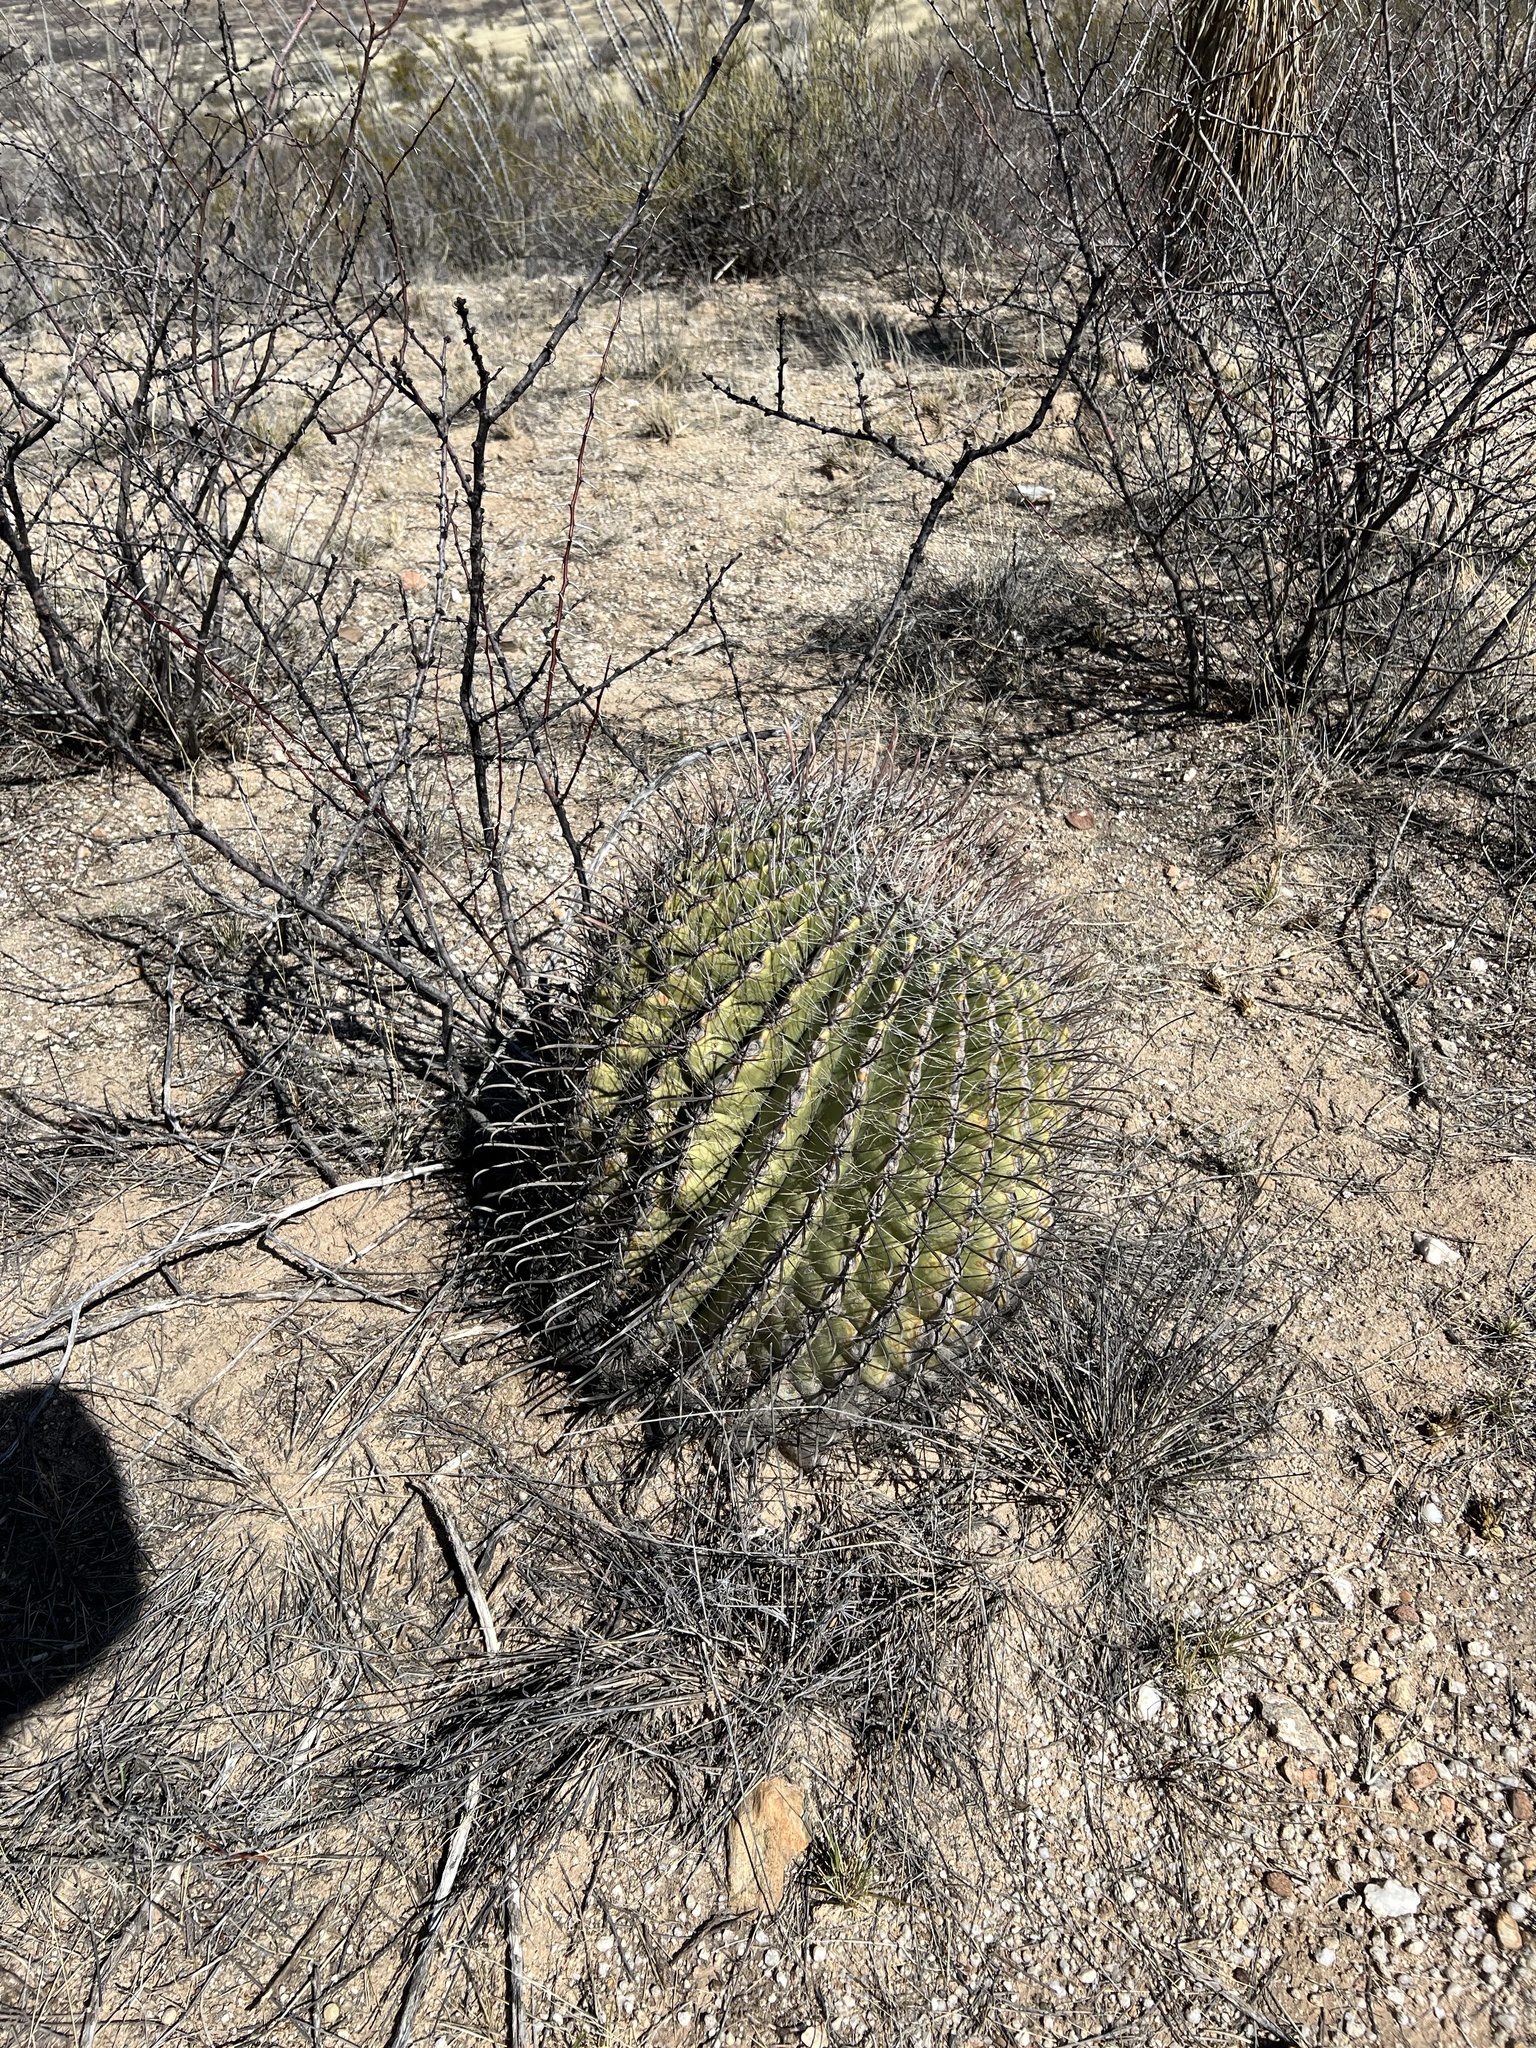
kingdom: Plantae
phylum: Tracheophyta
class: Magnoliopsida
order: Caryophyllales
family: Cactaceae
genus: Ferocactus
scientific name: Ferocactus wislizeni
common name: Candy barrel cactus
